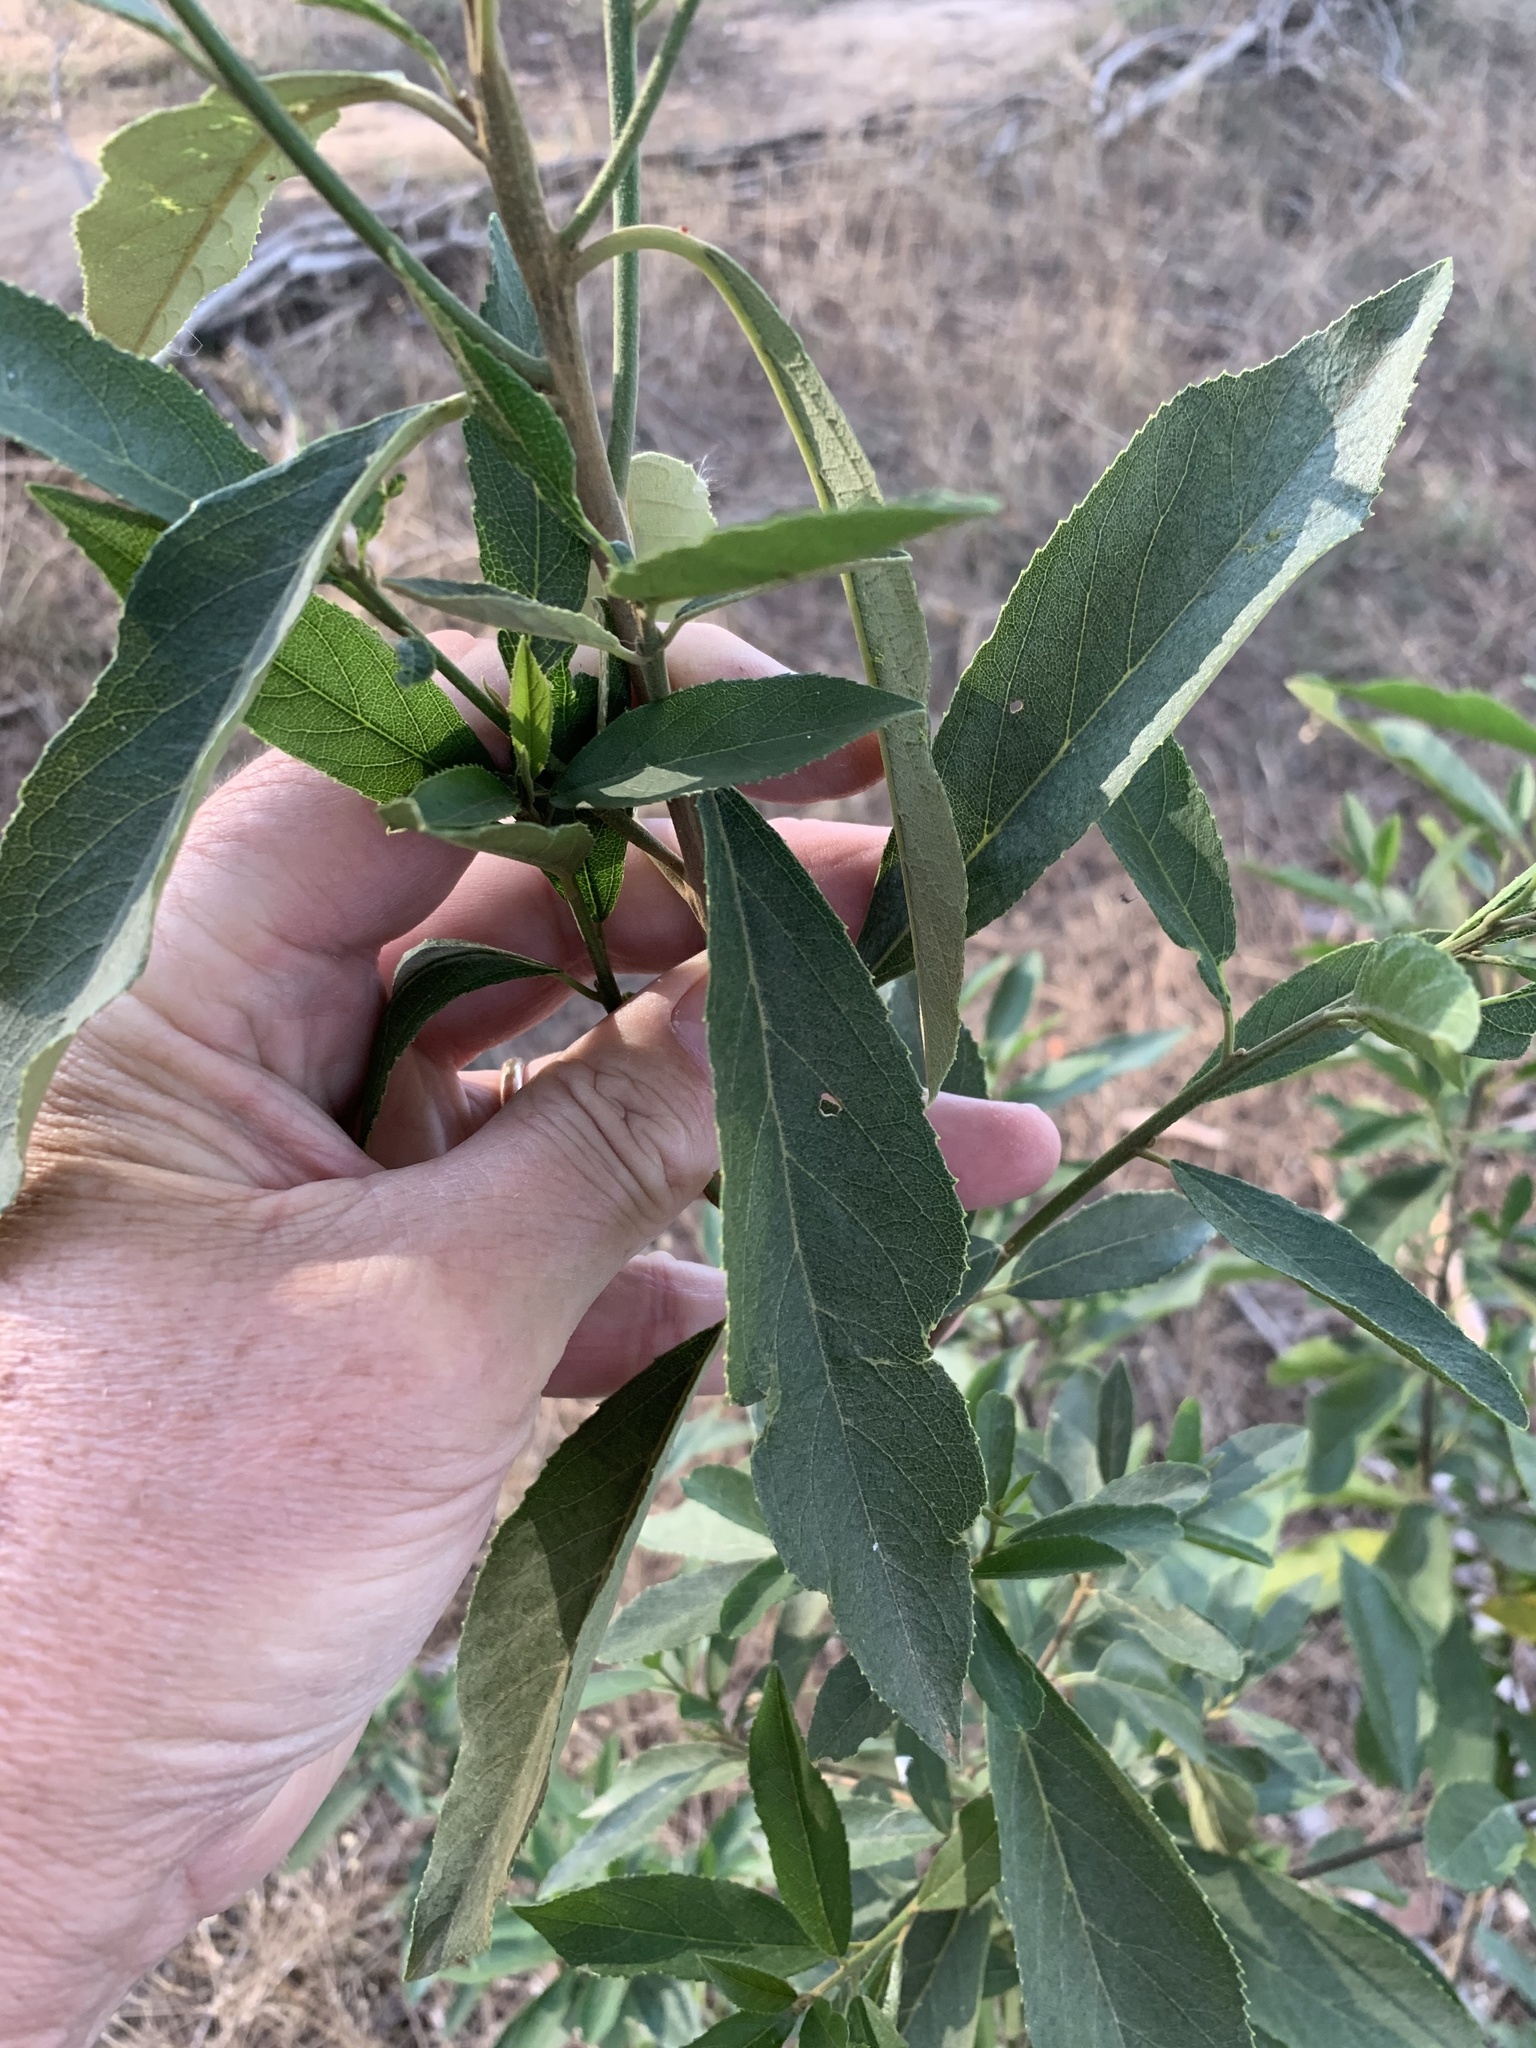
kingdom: Plantae
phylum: Tracheophyta
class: Magnoliopsida
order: Malpighiales
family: Achariaceae
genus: Kiggelaria
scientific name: Kiggelaria africana
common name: Wild peach
